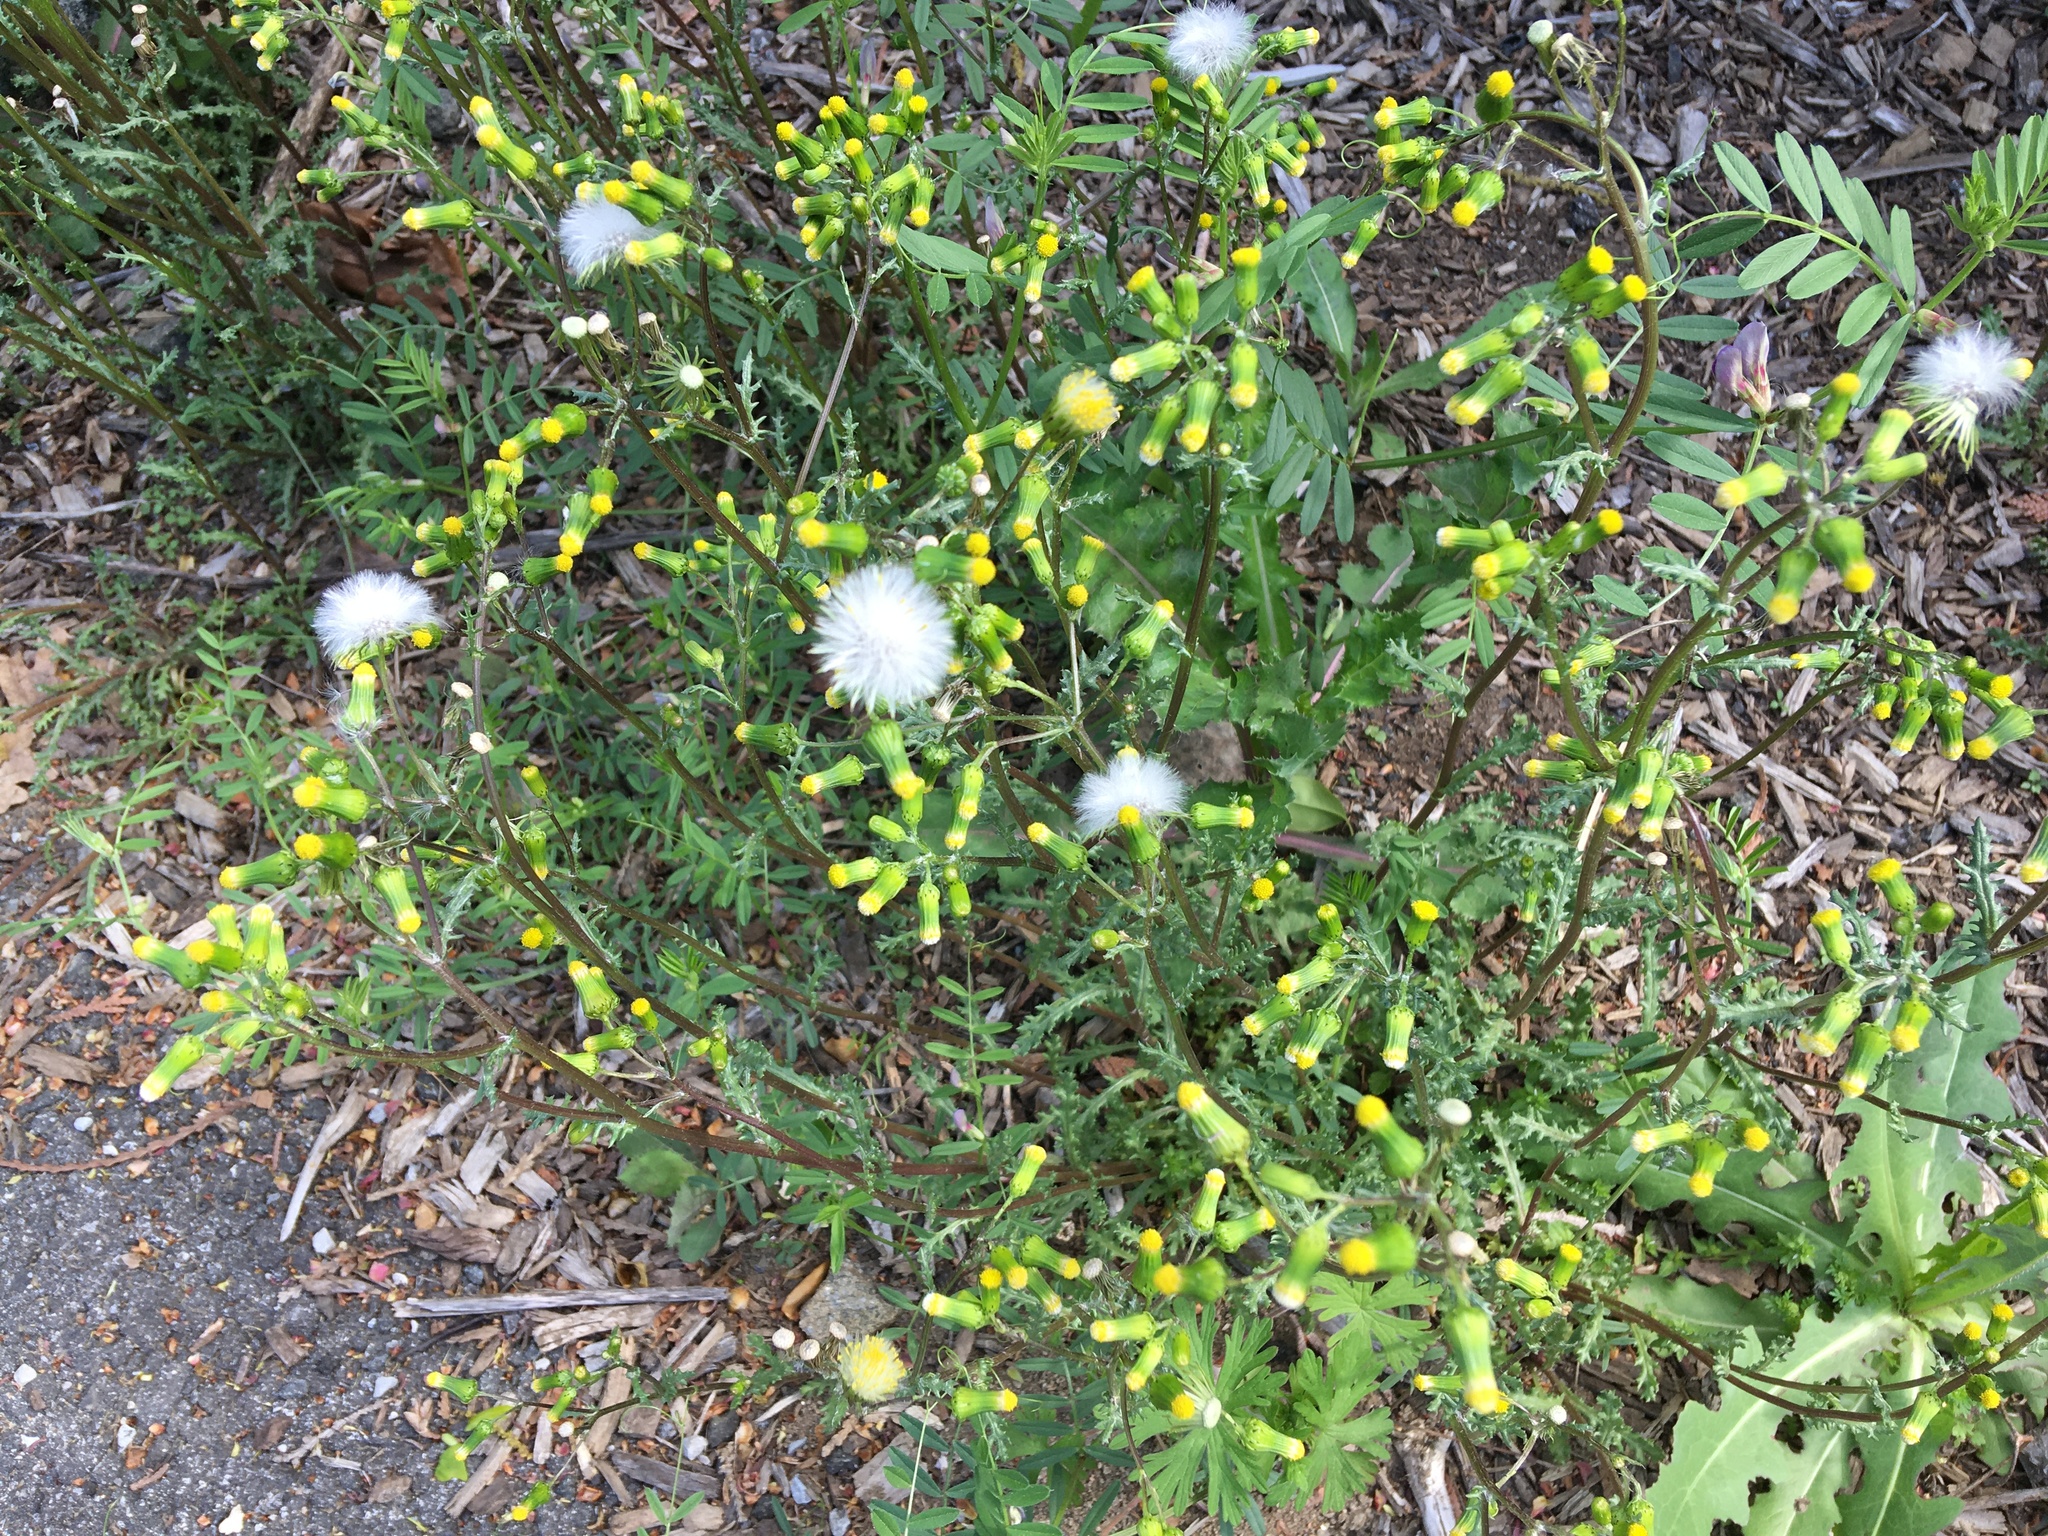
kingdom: Plantae
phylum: Tracheophyta
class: Magnoliopsida
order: Asterales
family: Asteraceae
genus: Senecio
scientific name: Senecio vulgaris
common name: Old-man-in-the-spring
